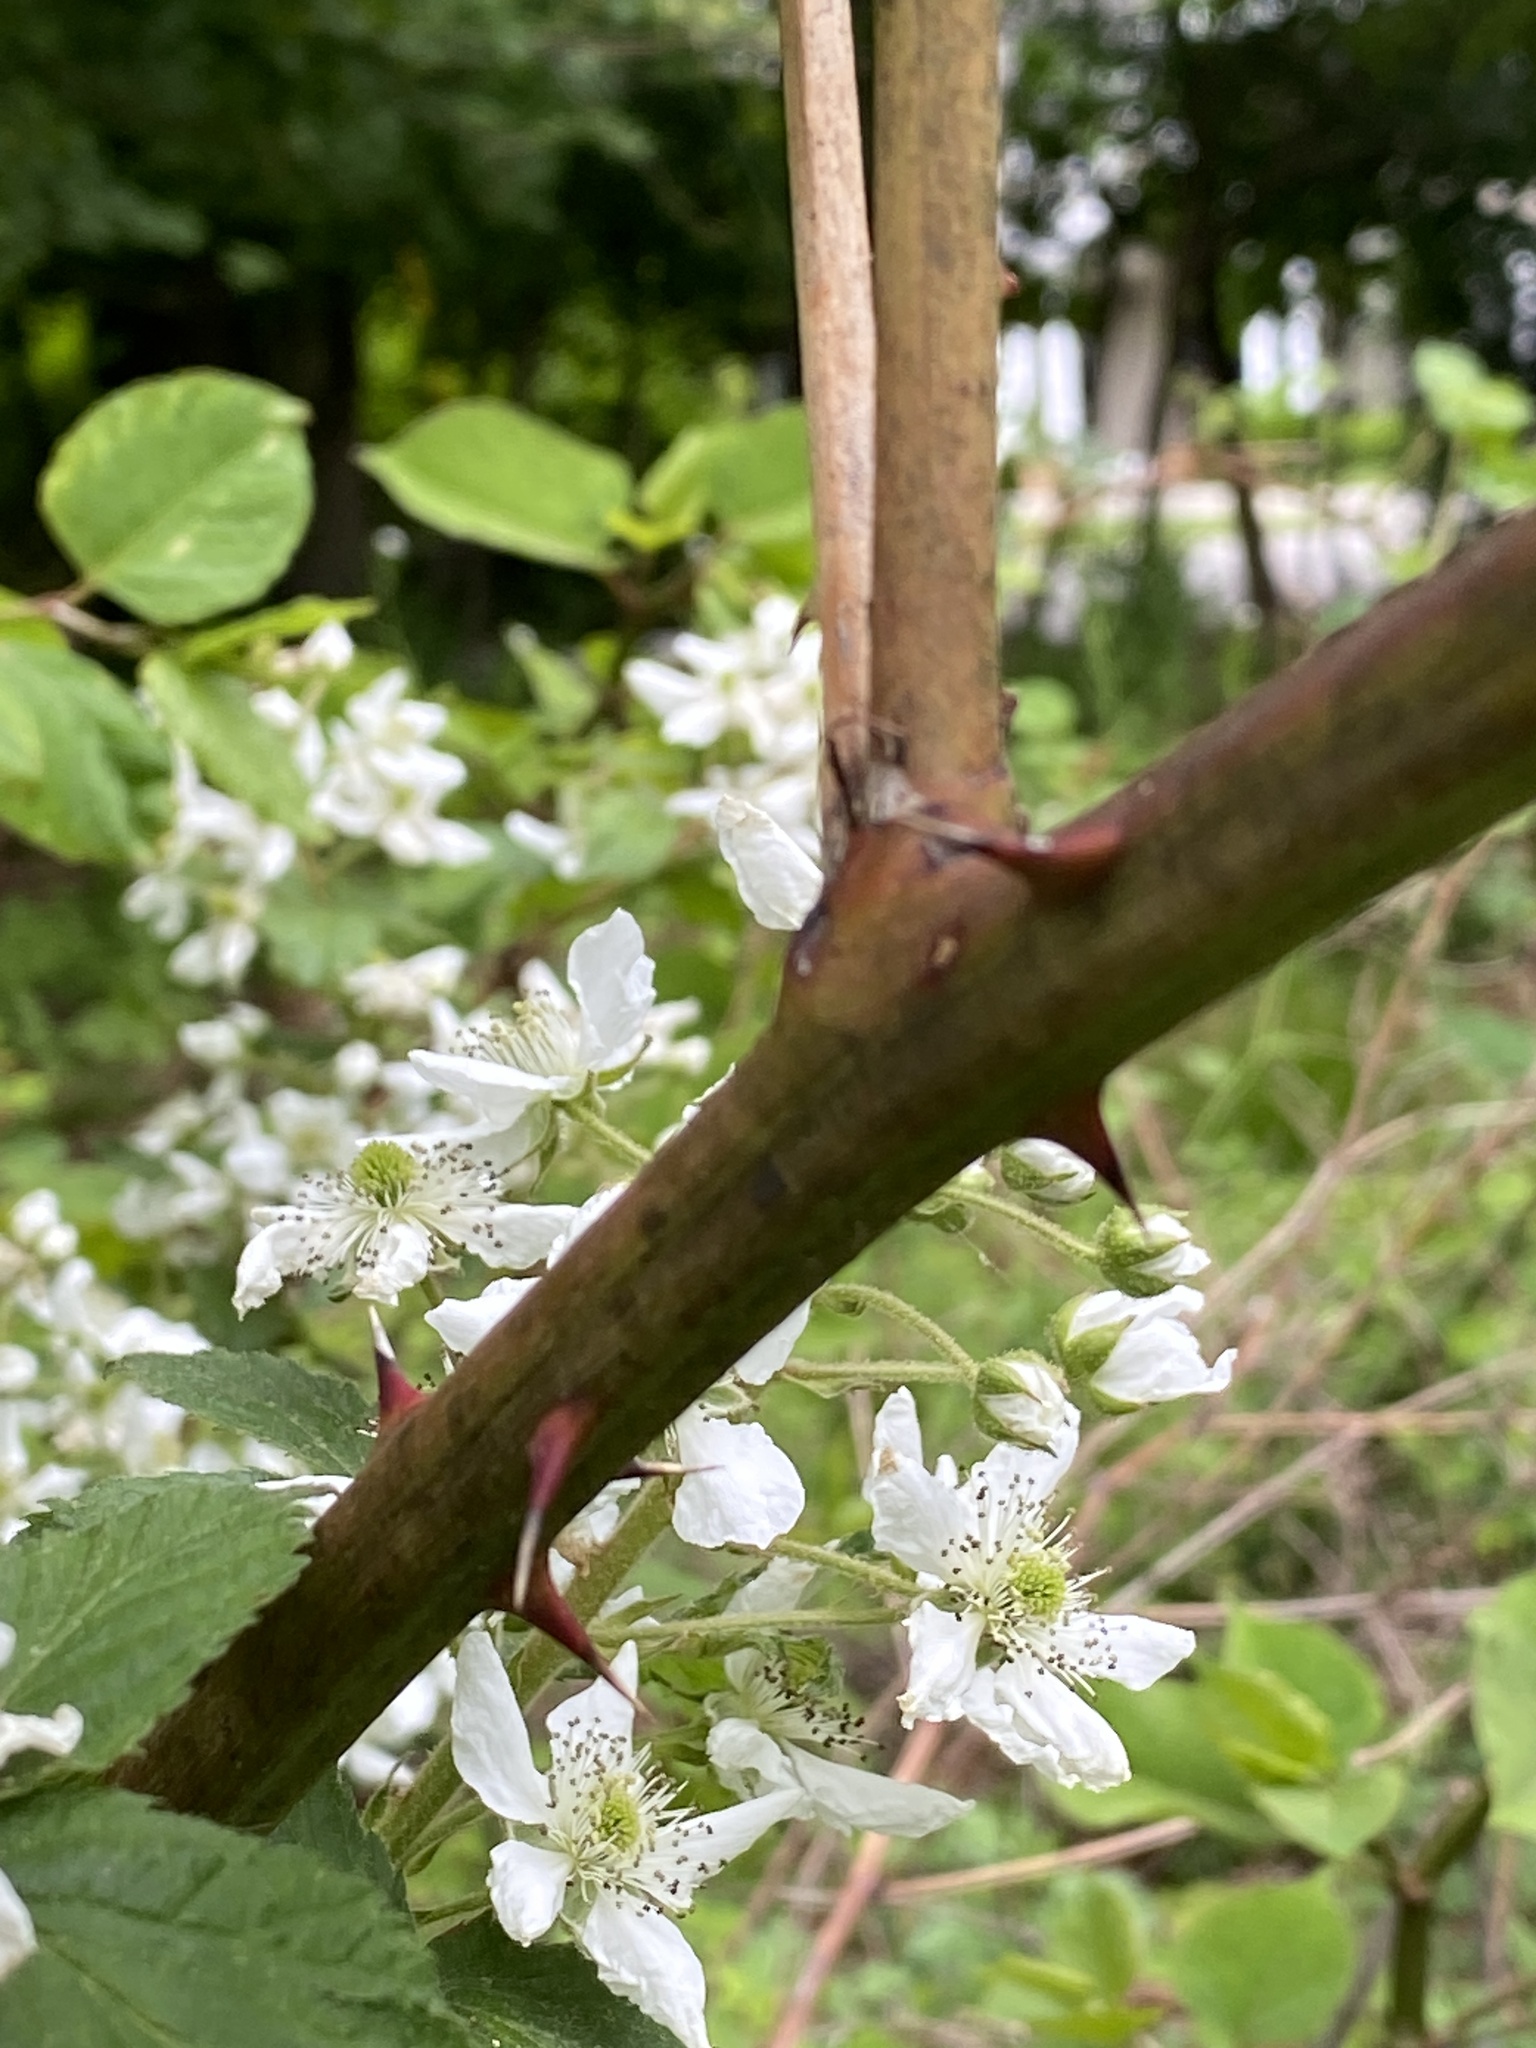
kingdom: Plantae
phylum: Tracheophyta
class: Magnoliopsida
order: Rosales
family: Rosaceae
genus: Rubus
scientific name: Rubus allegheniensis
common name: Allegheny blackberry
